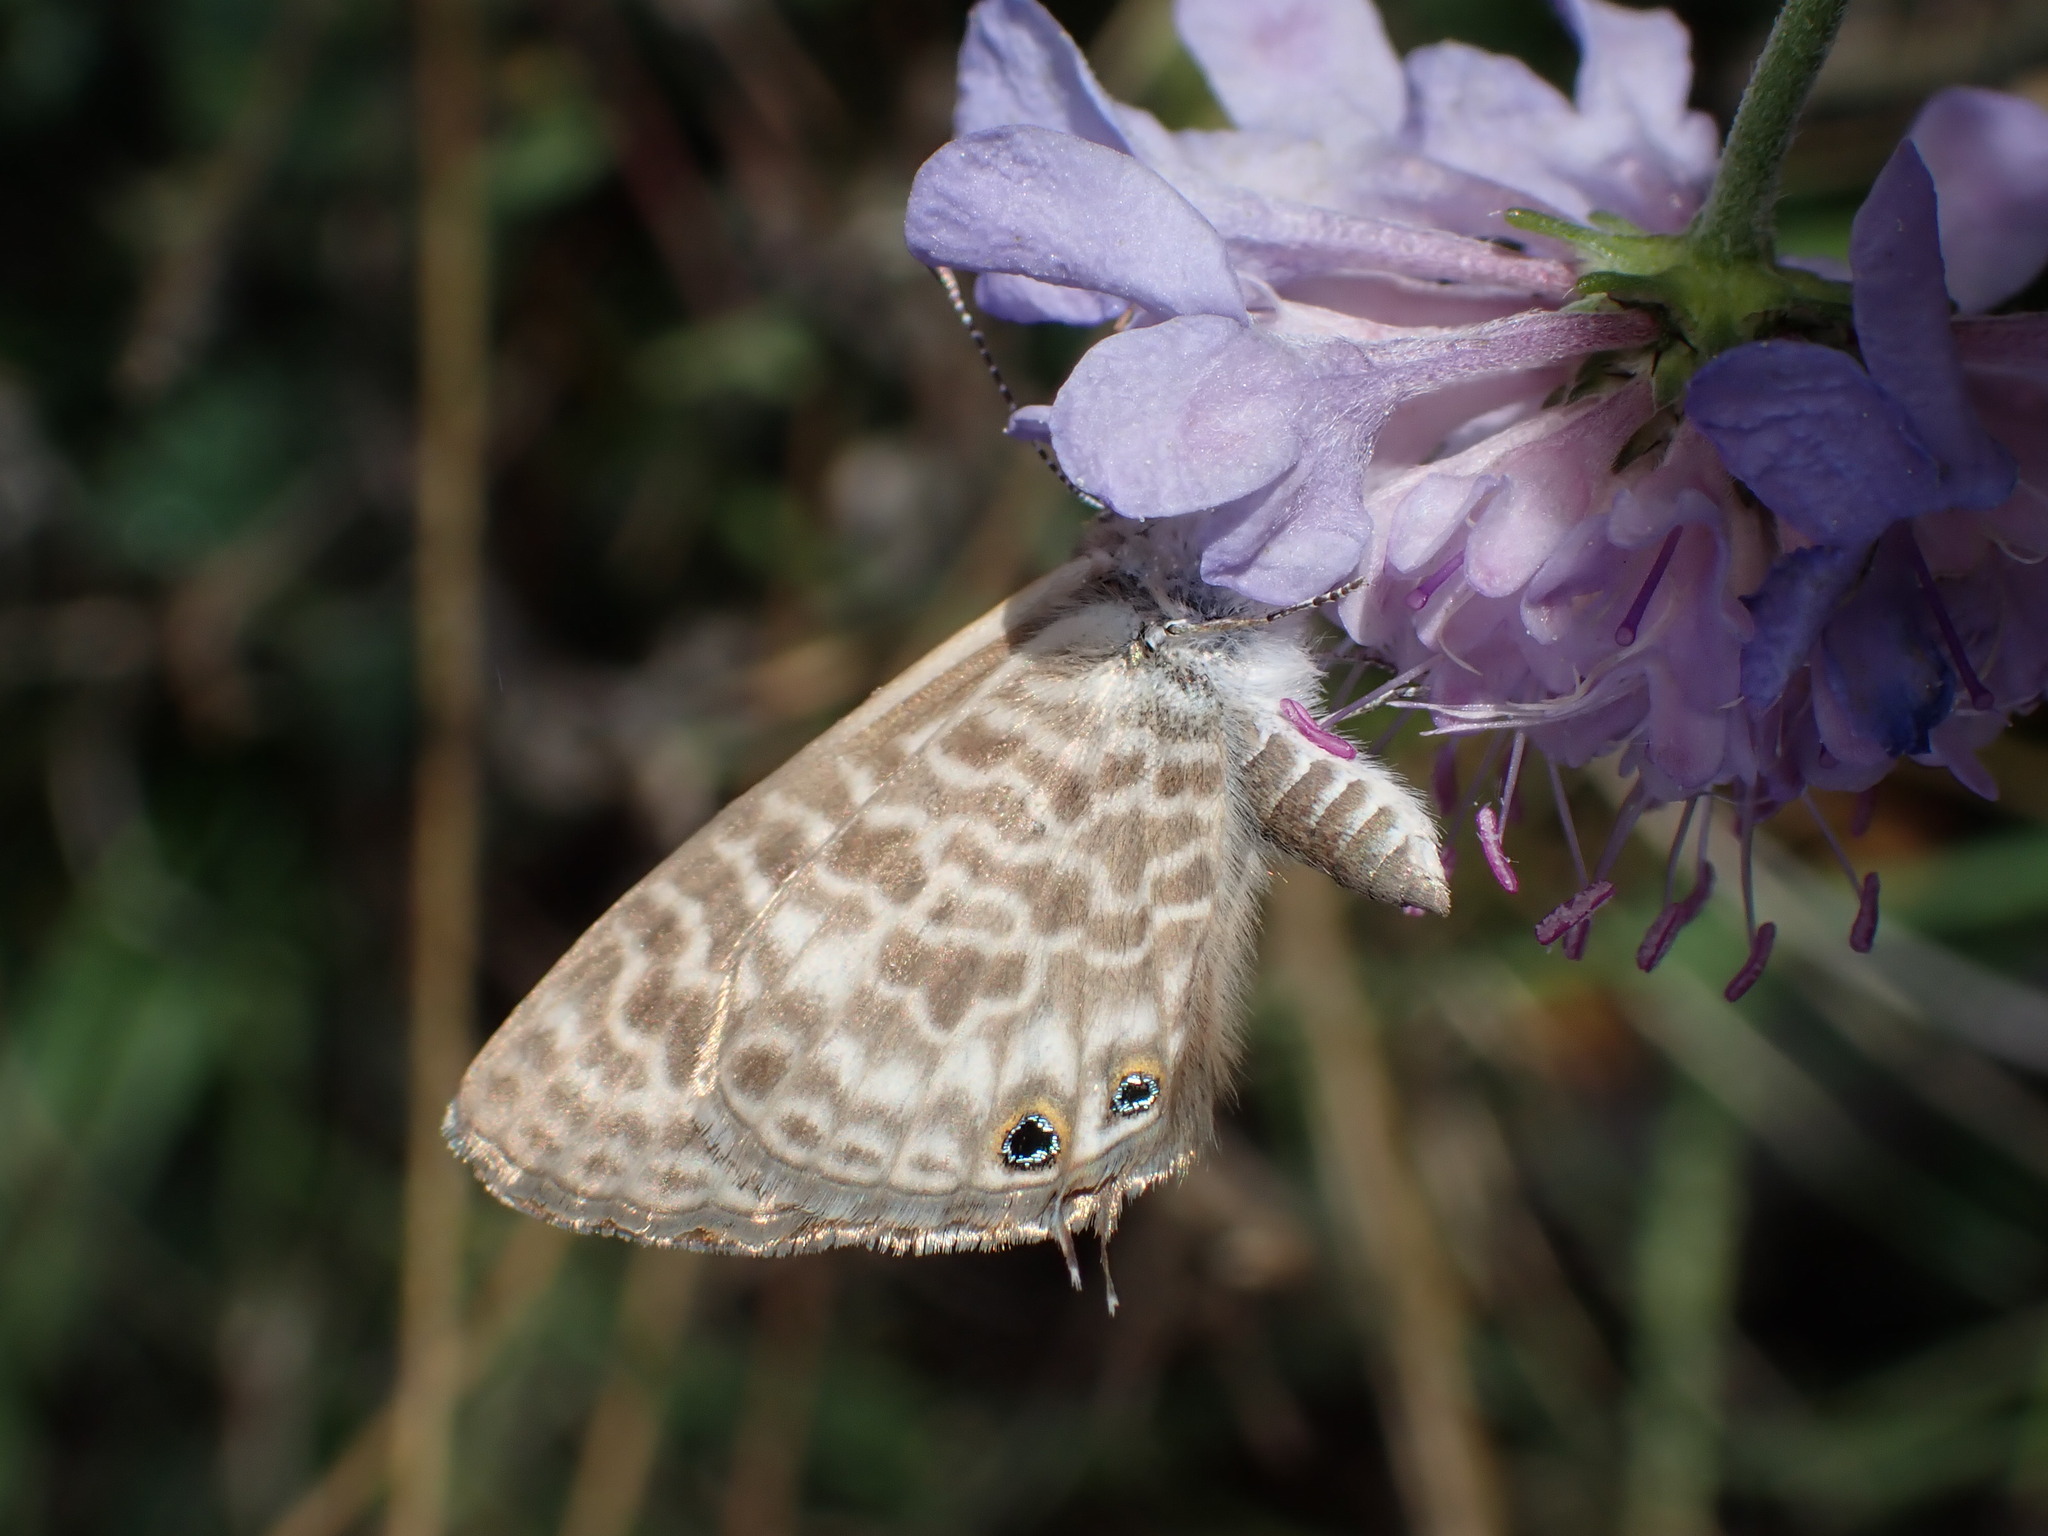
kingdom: Animalia
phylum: Arthropoda
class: Insecta
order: Lepidoptera
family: Lycaenidae
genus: Leptotes
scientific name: Leptotes pirithous
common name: Lang's short-tailed blue
